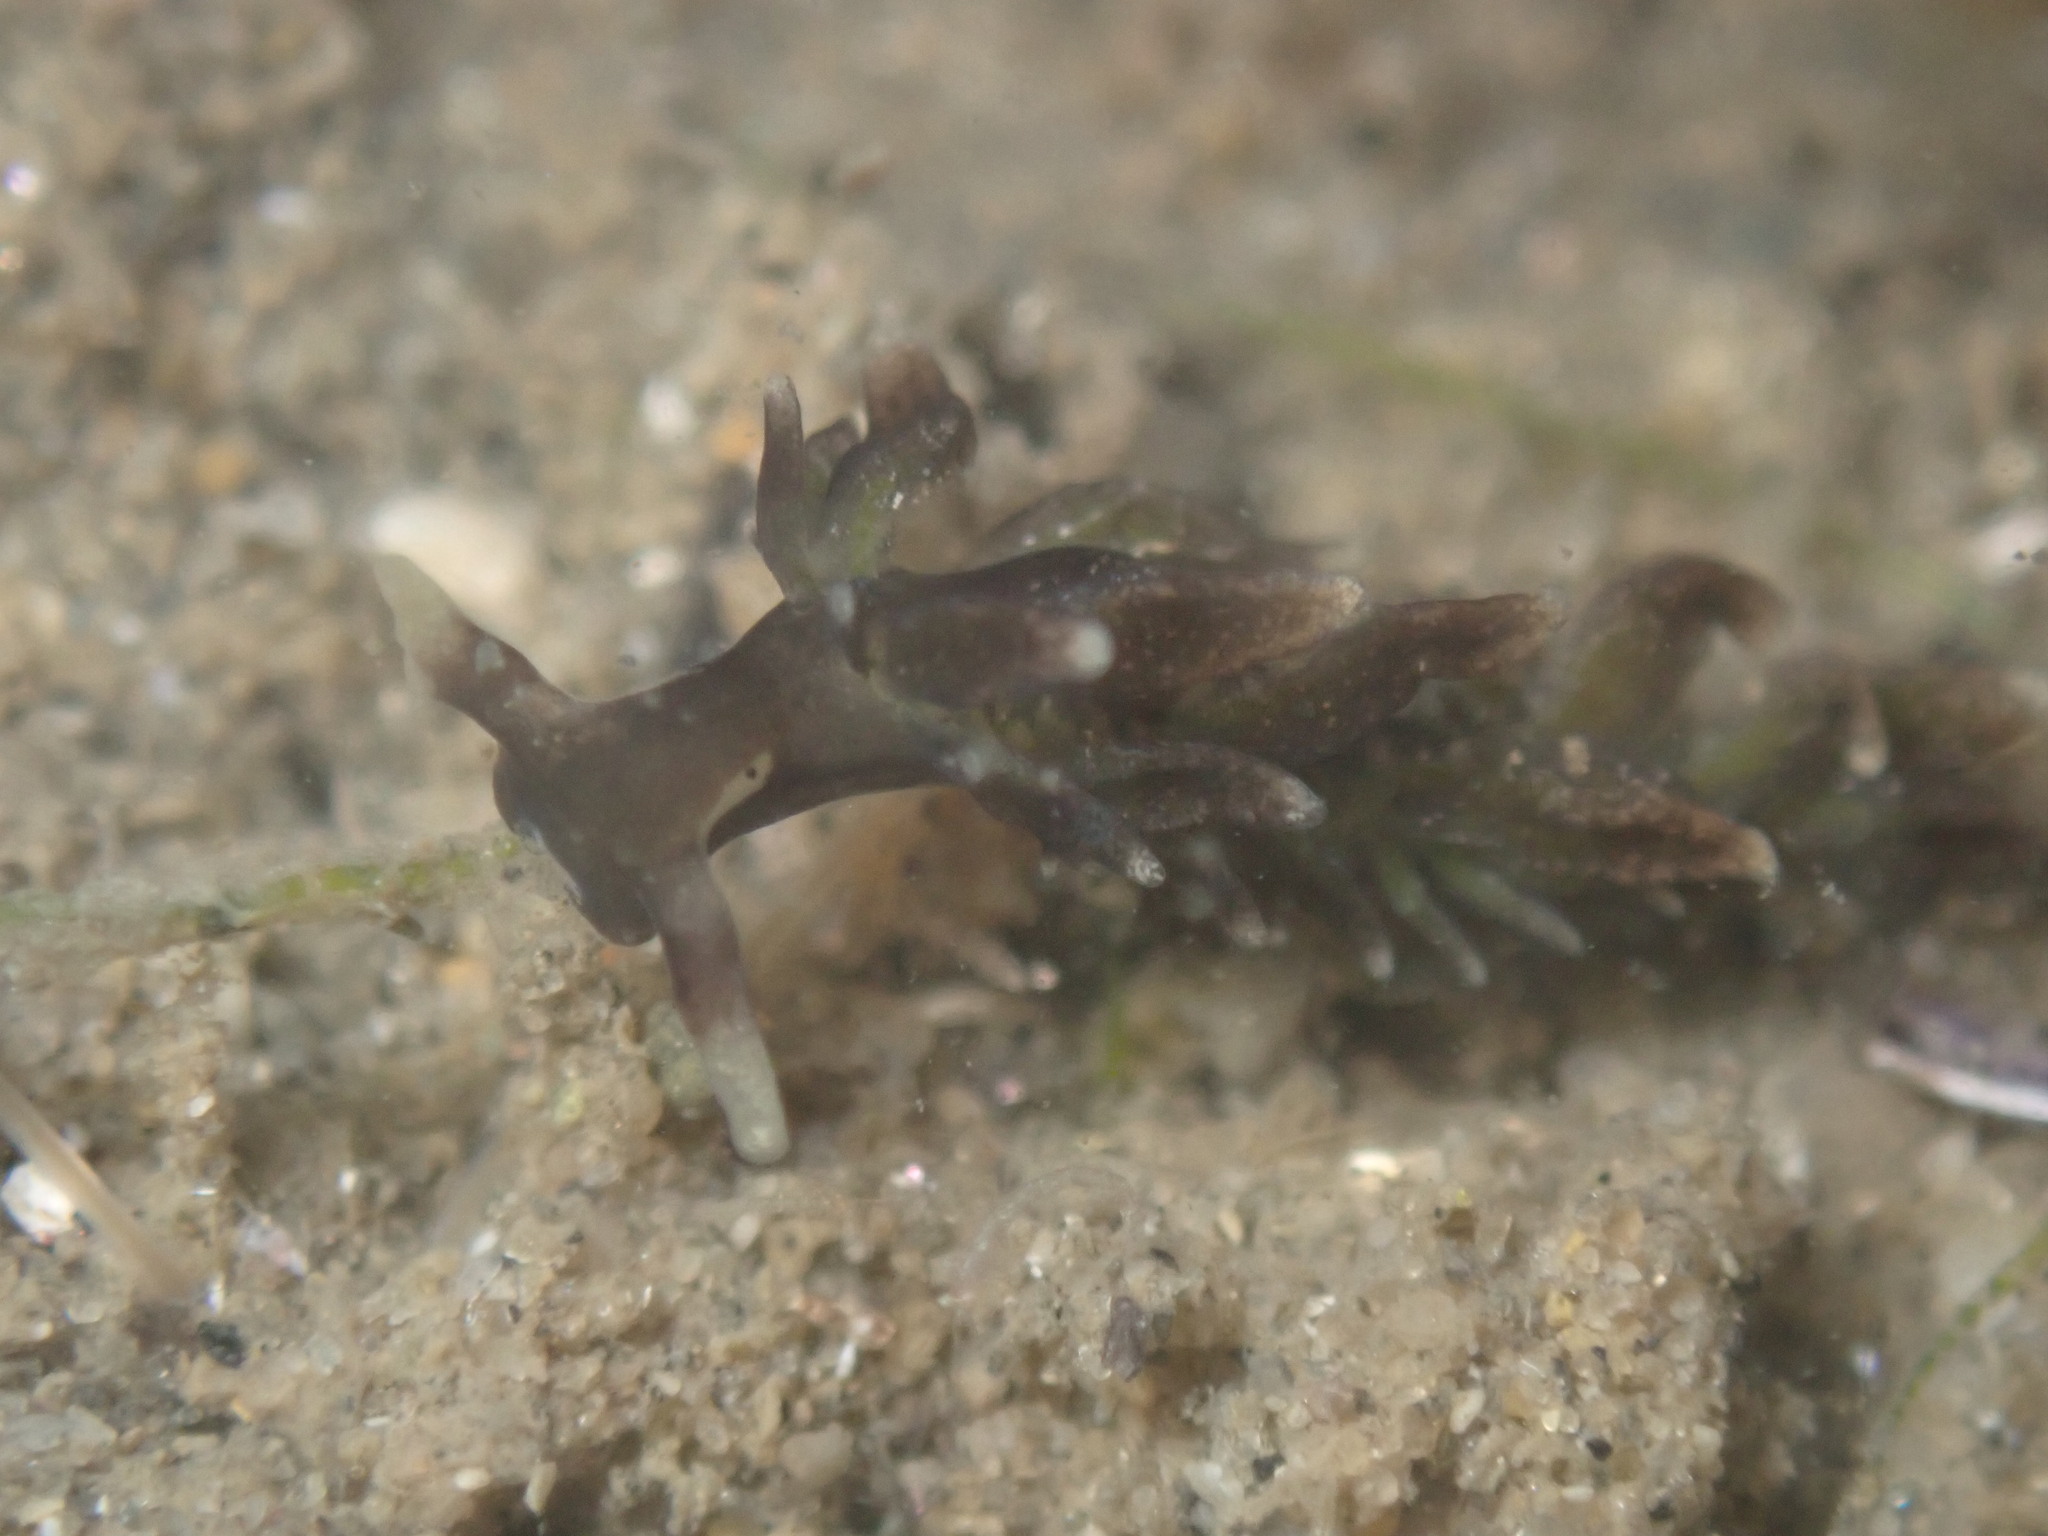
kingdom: Animalia
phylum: Mollusca
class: Gastropoda
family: Hermaeidae
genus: Aplysiopsis
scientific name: Aplysiopsis enteromorphae
